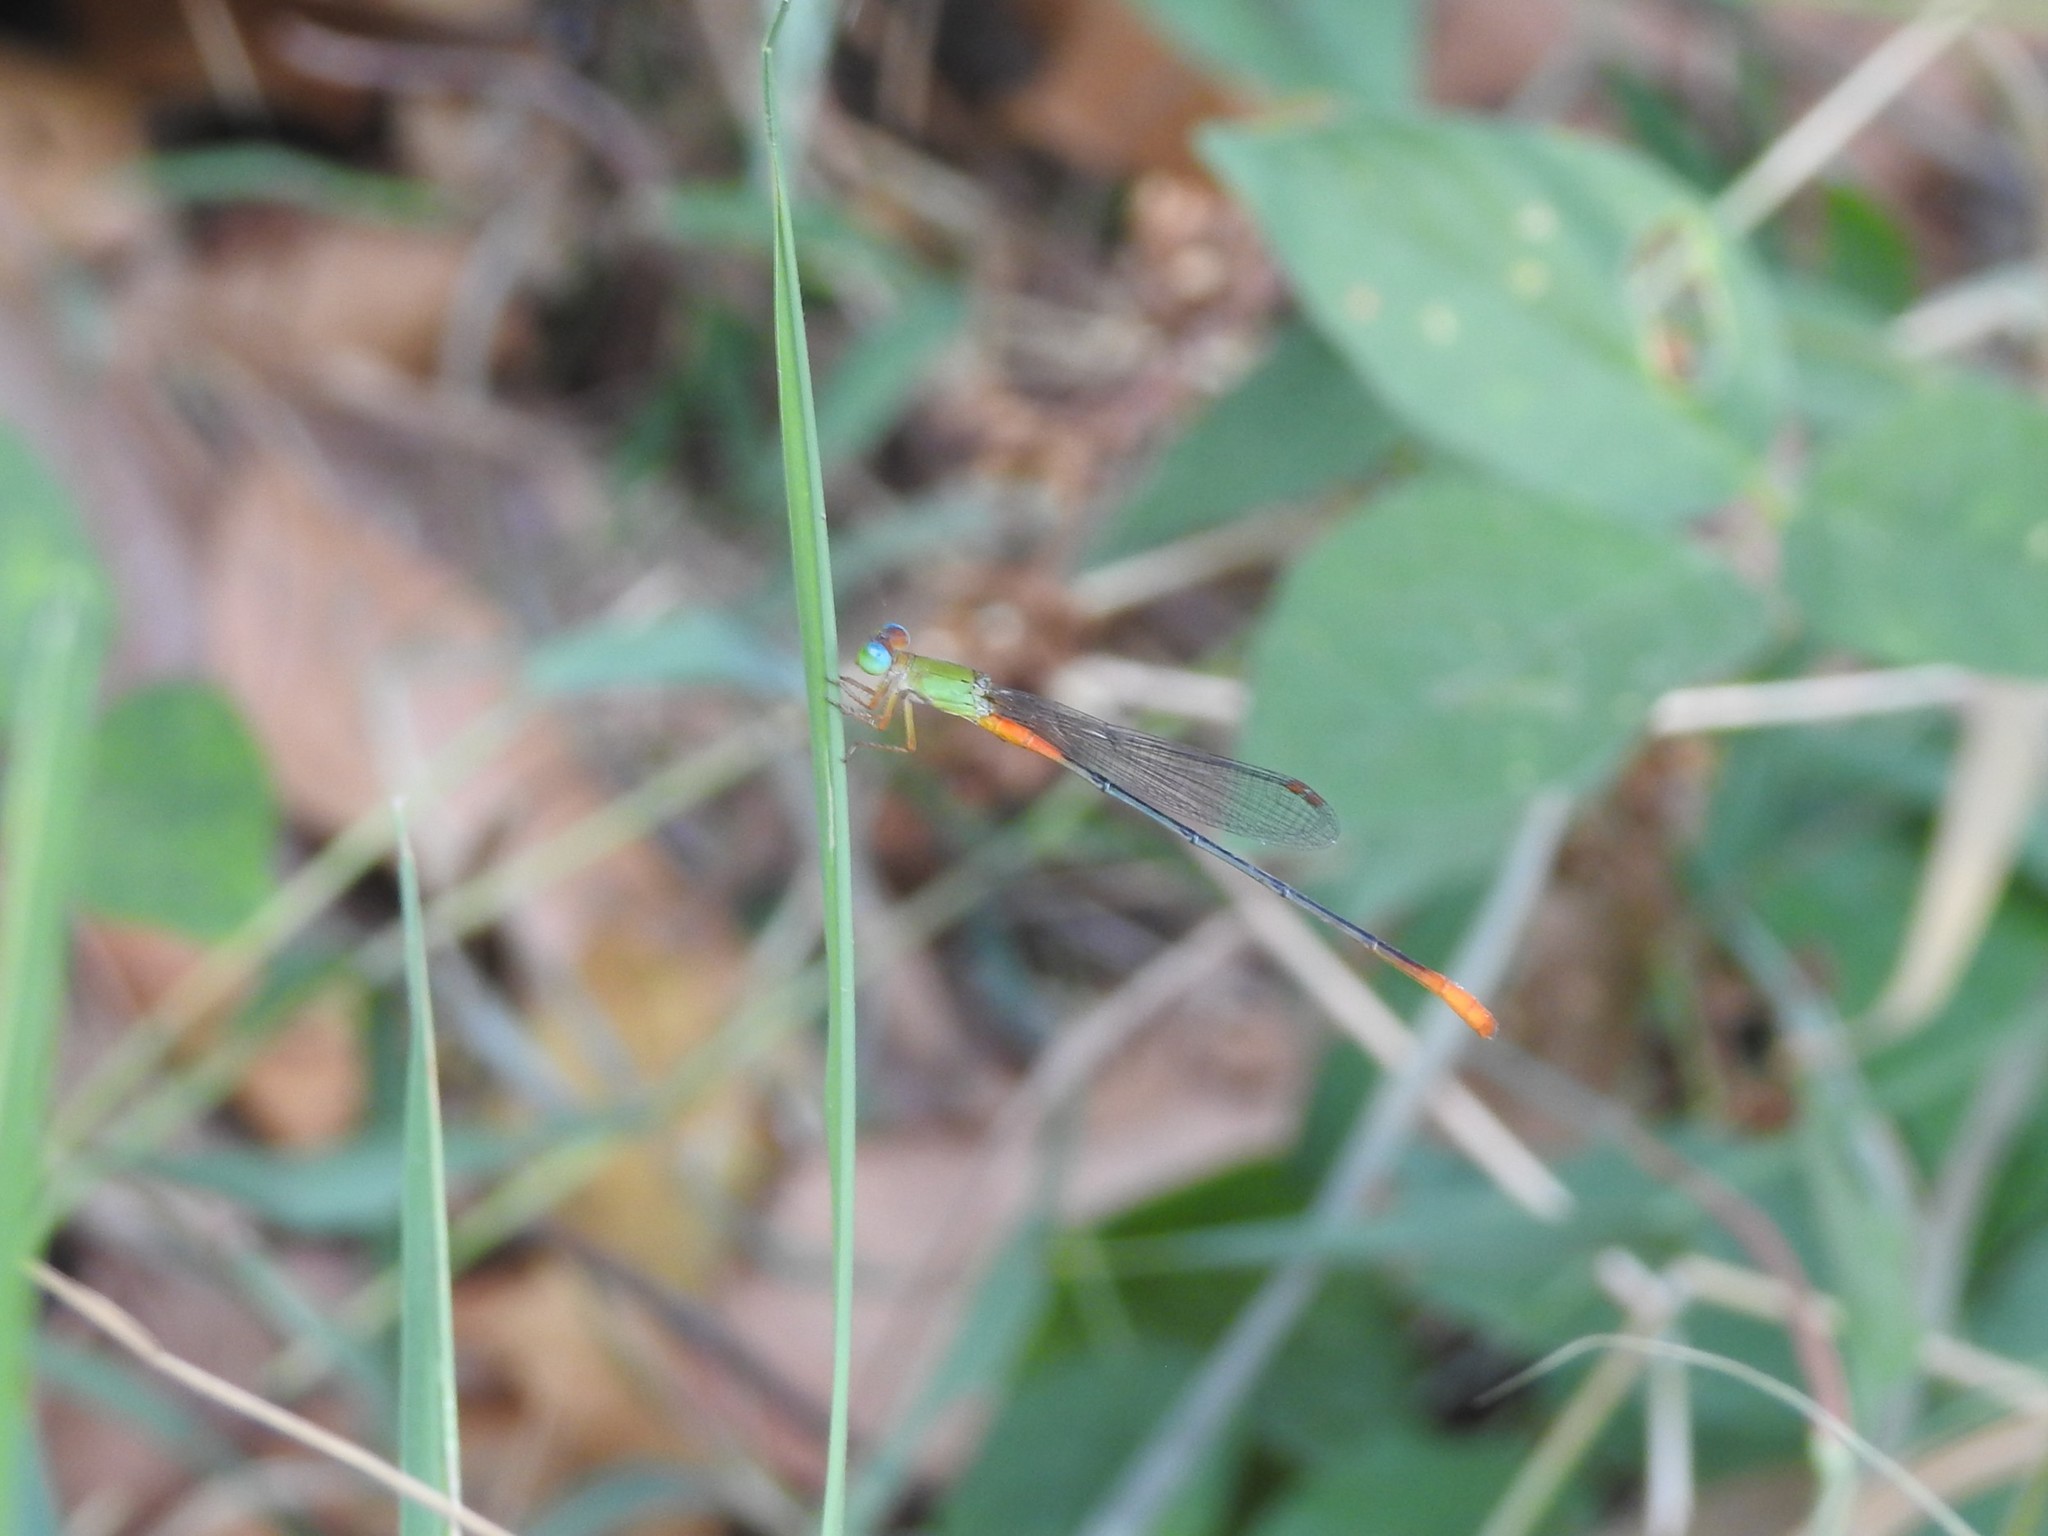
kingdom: Animalia
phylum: Arthropoda
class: Insecta
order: Odonata
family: Coenagrionidae
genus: Ceriagrion
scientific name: Ceriagrion cerinorubellum
